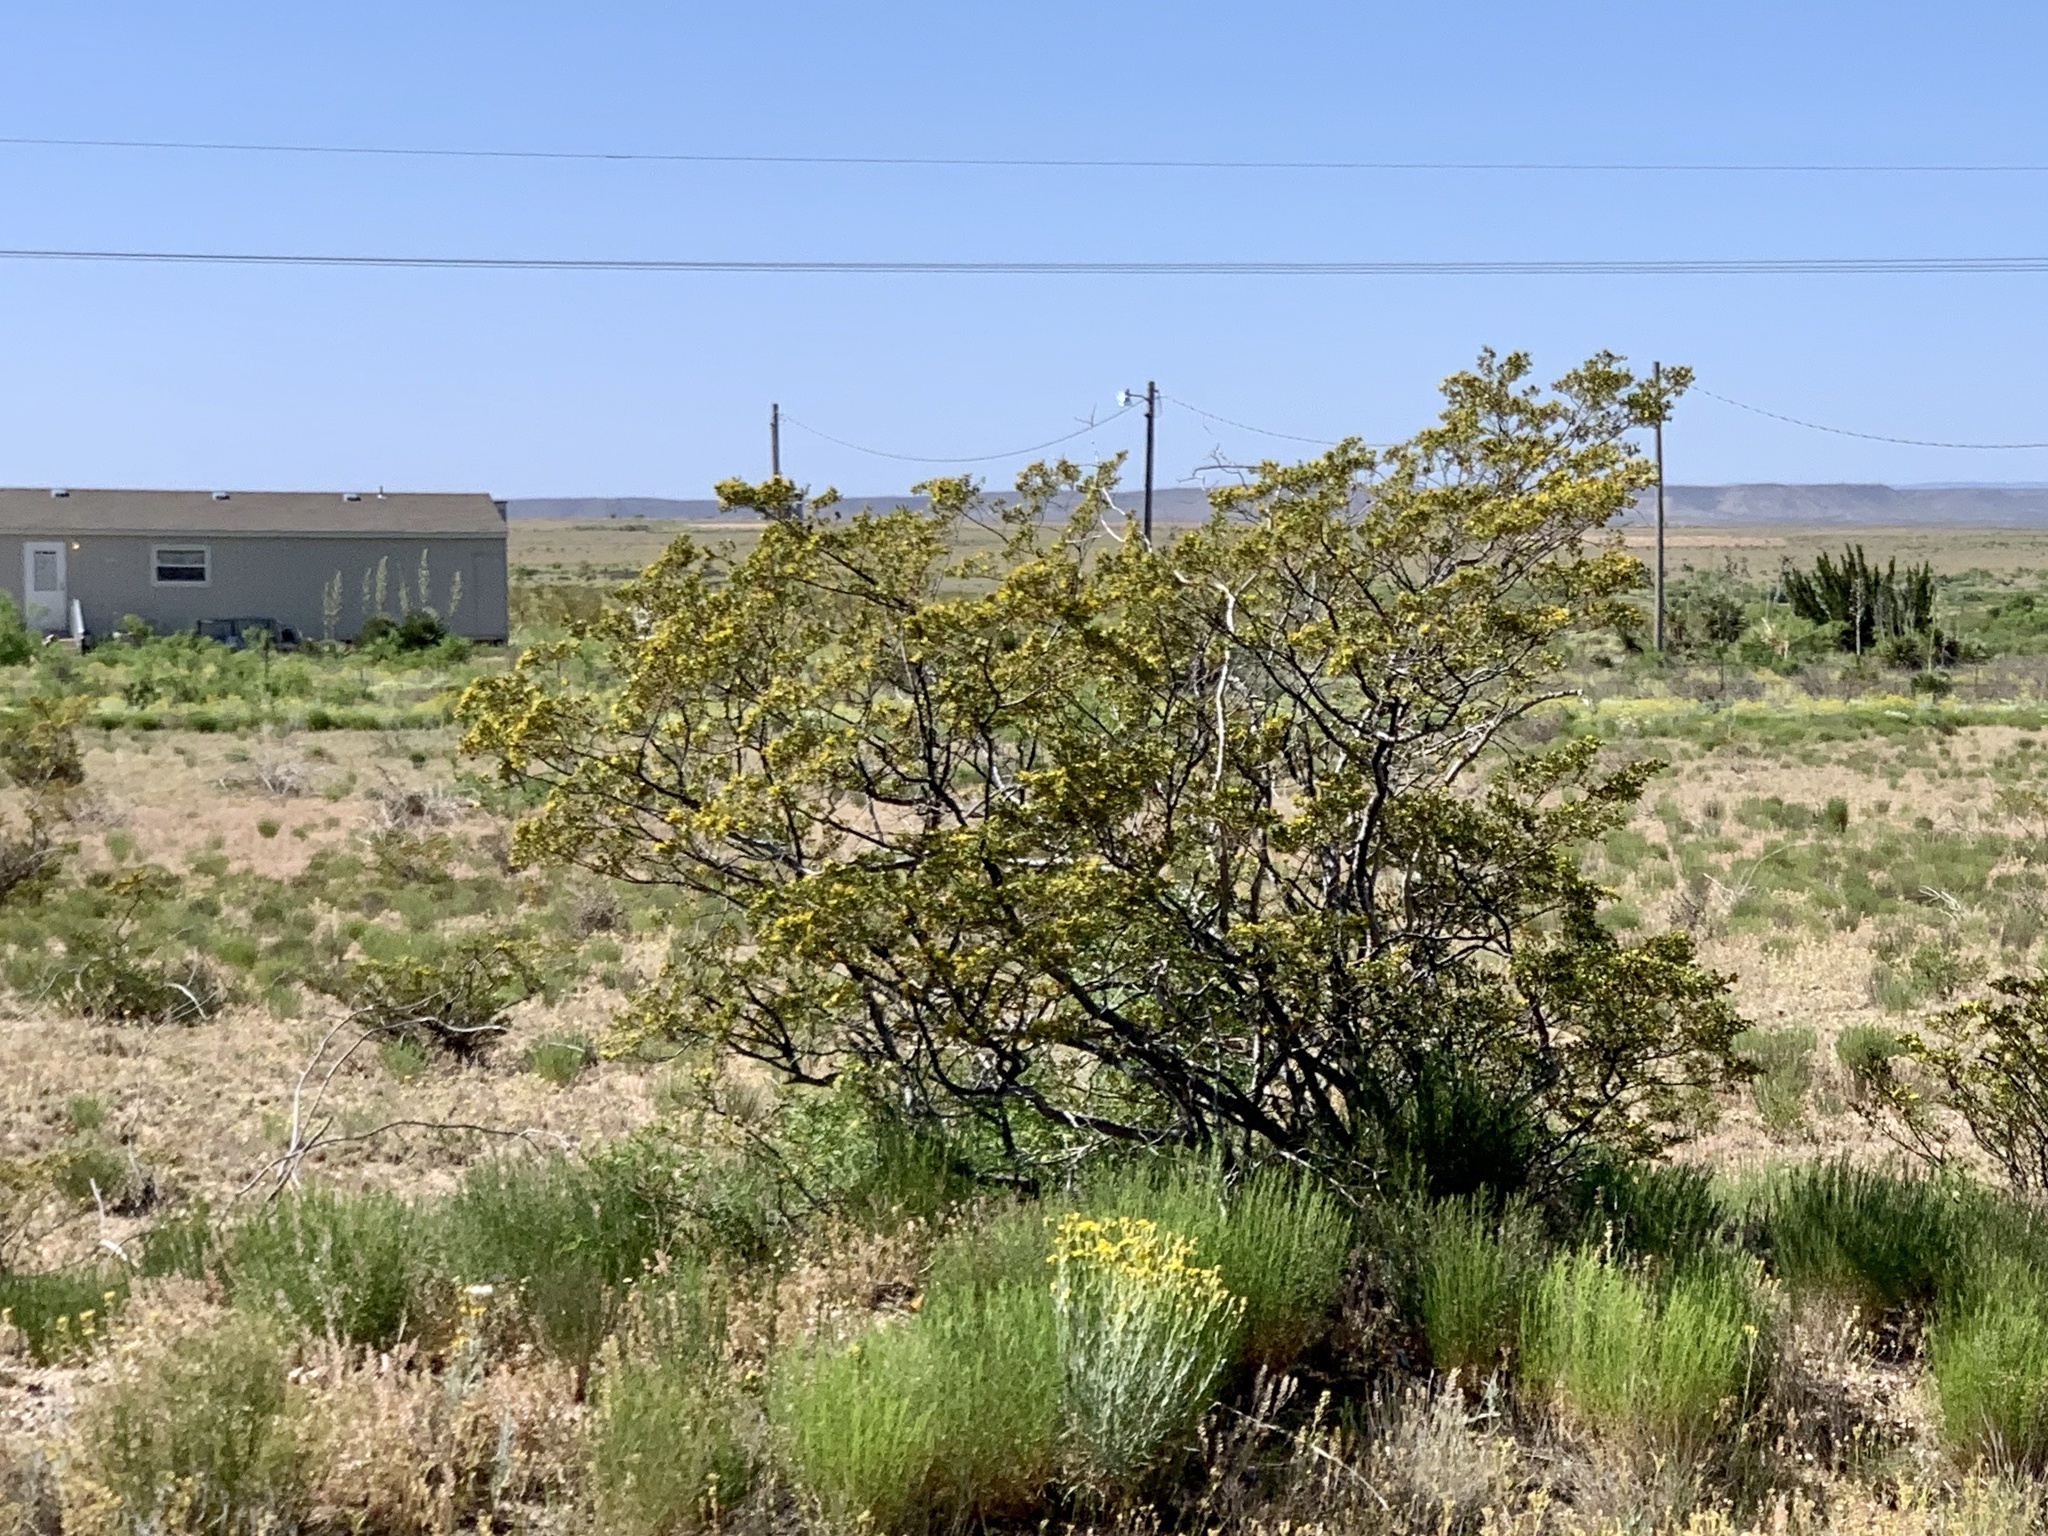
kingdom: Plantae
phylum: Tracheophyta
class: Magnoliopsida
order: Zygophyllales
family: Zygophyllaceae
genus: Larrea
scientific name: Larrea tridentata
